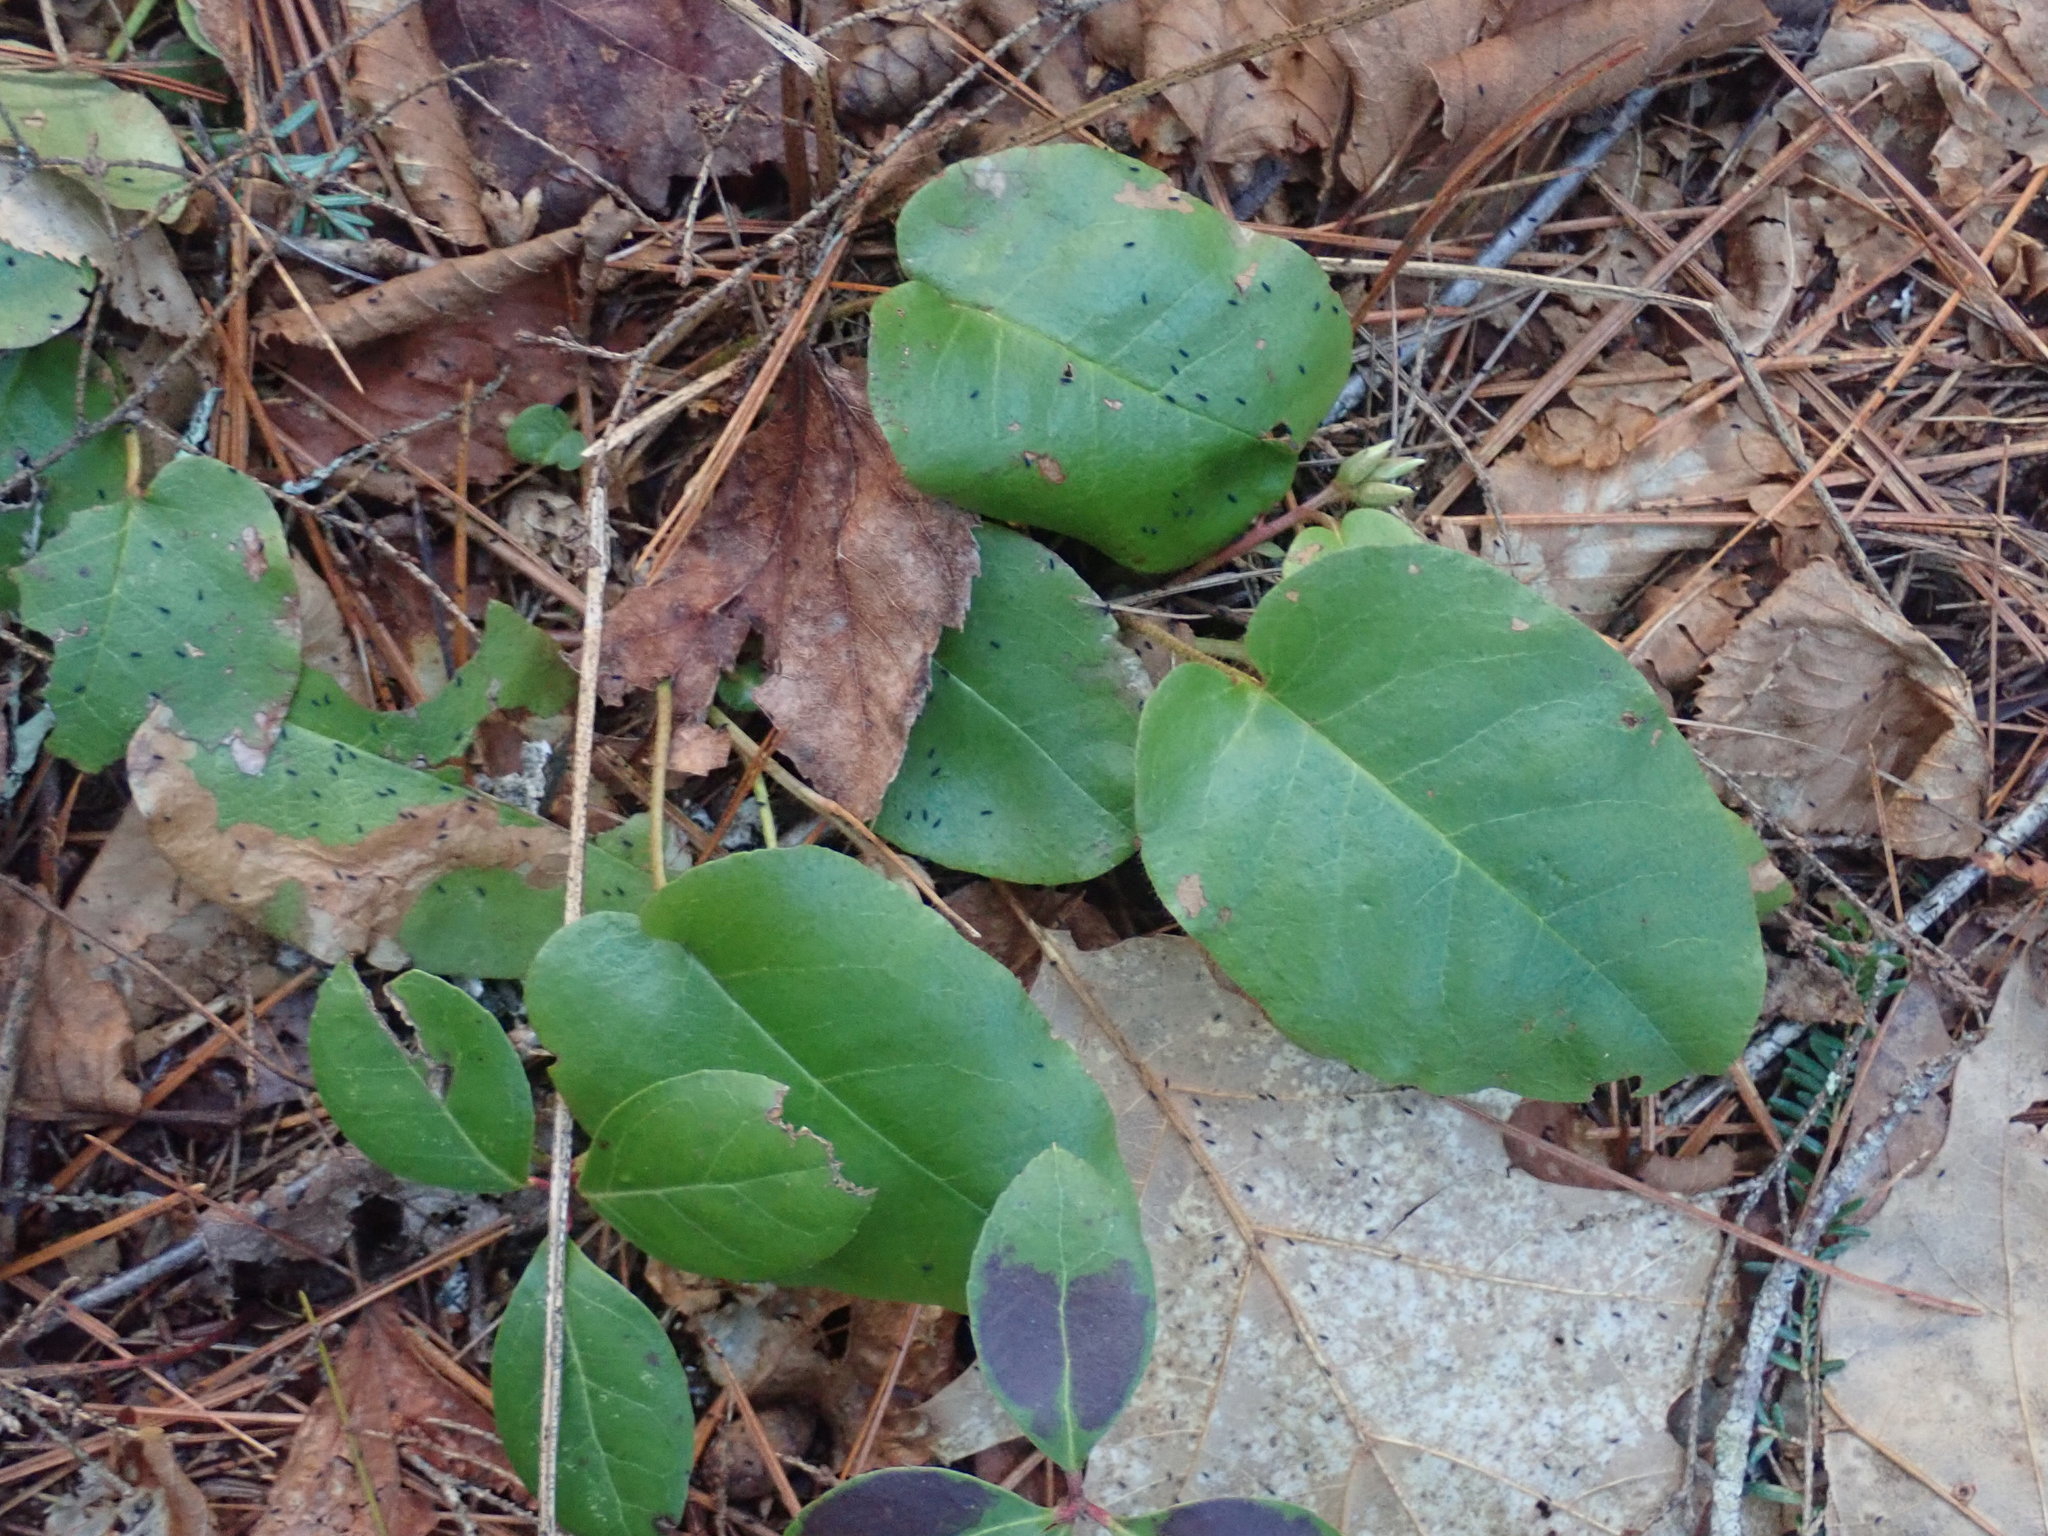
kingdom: Plantae
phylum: Tracheophyta
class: Magnoliopsida
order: Ericales
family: Ericaceae
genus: Epigaea
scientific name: Epigaea repens
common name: Gravelroot
